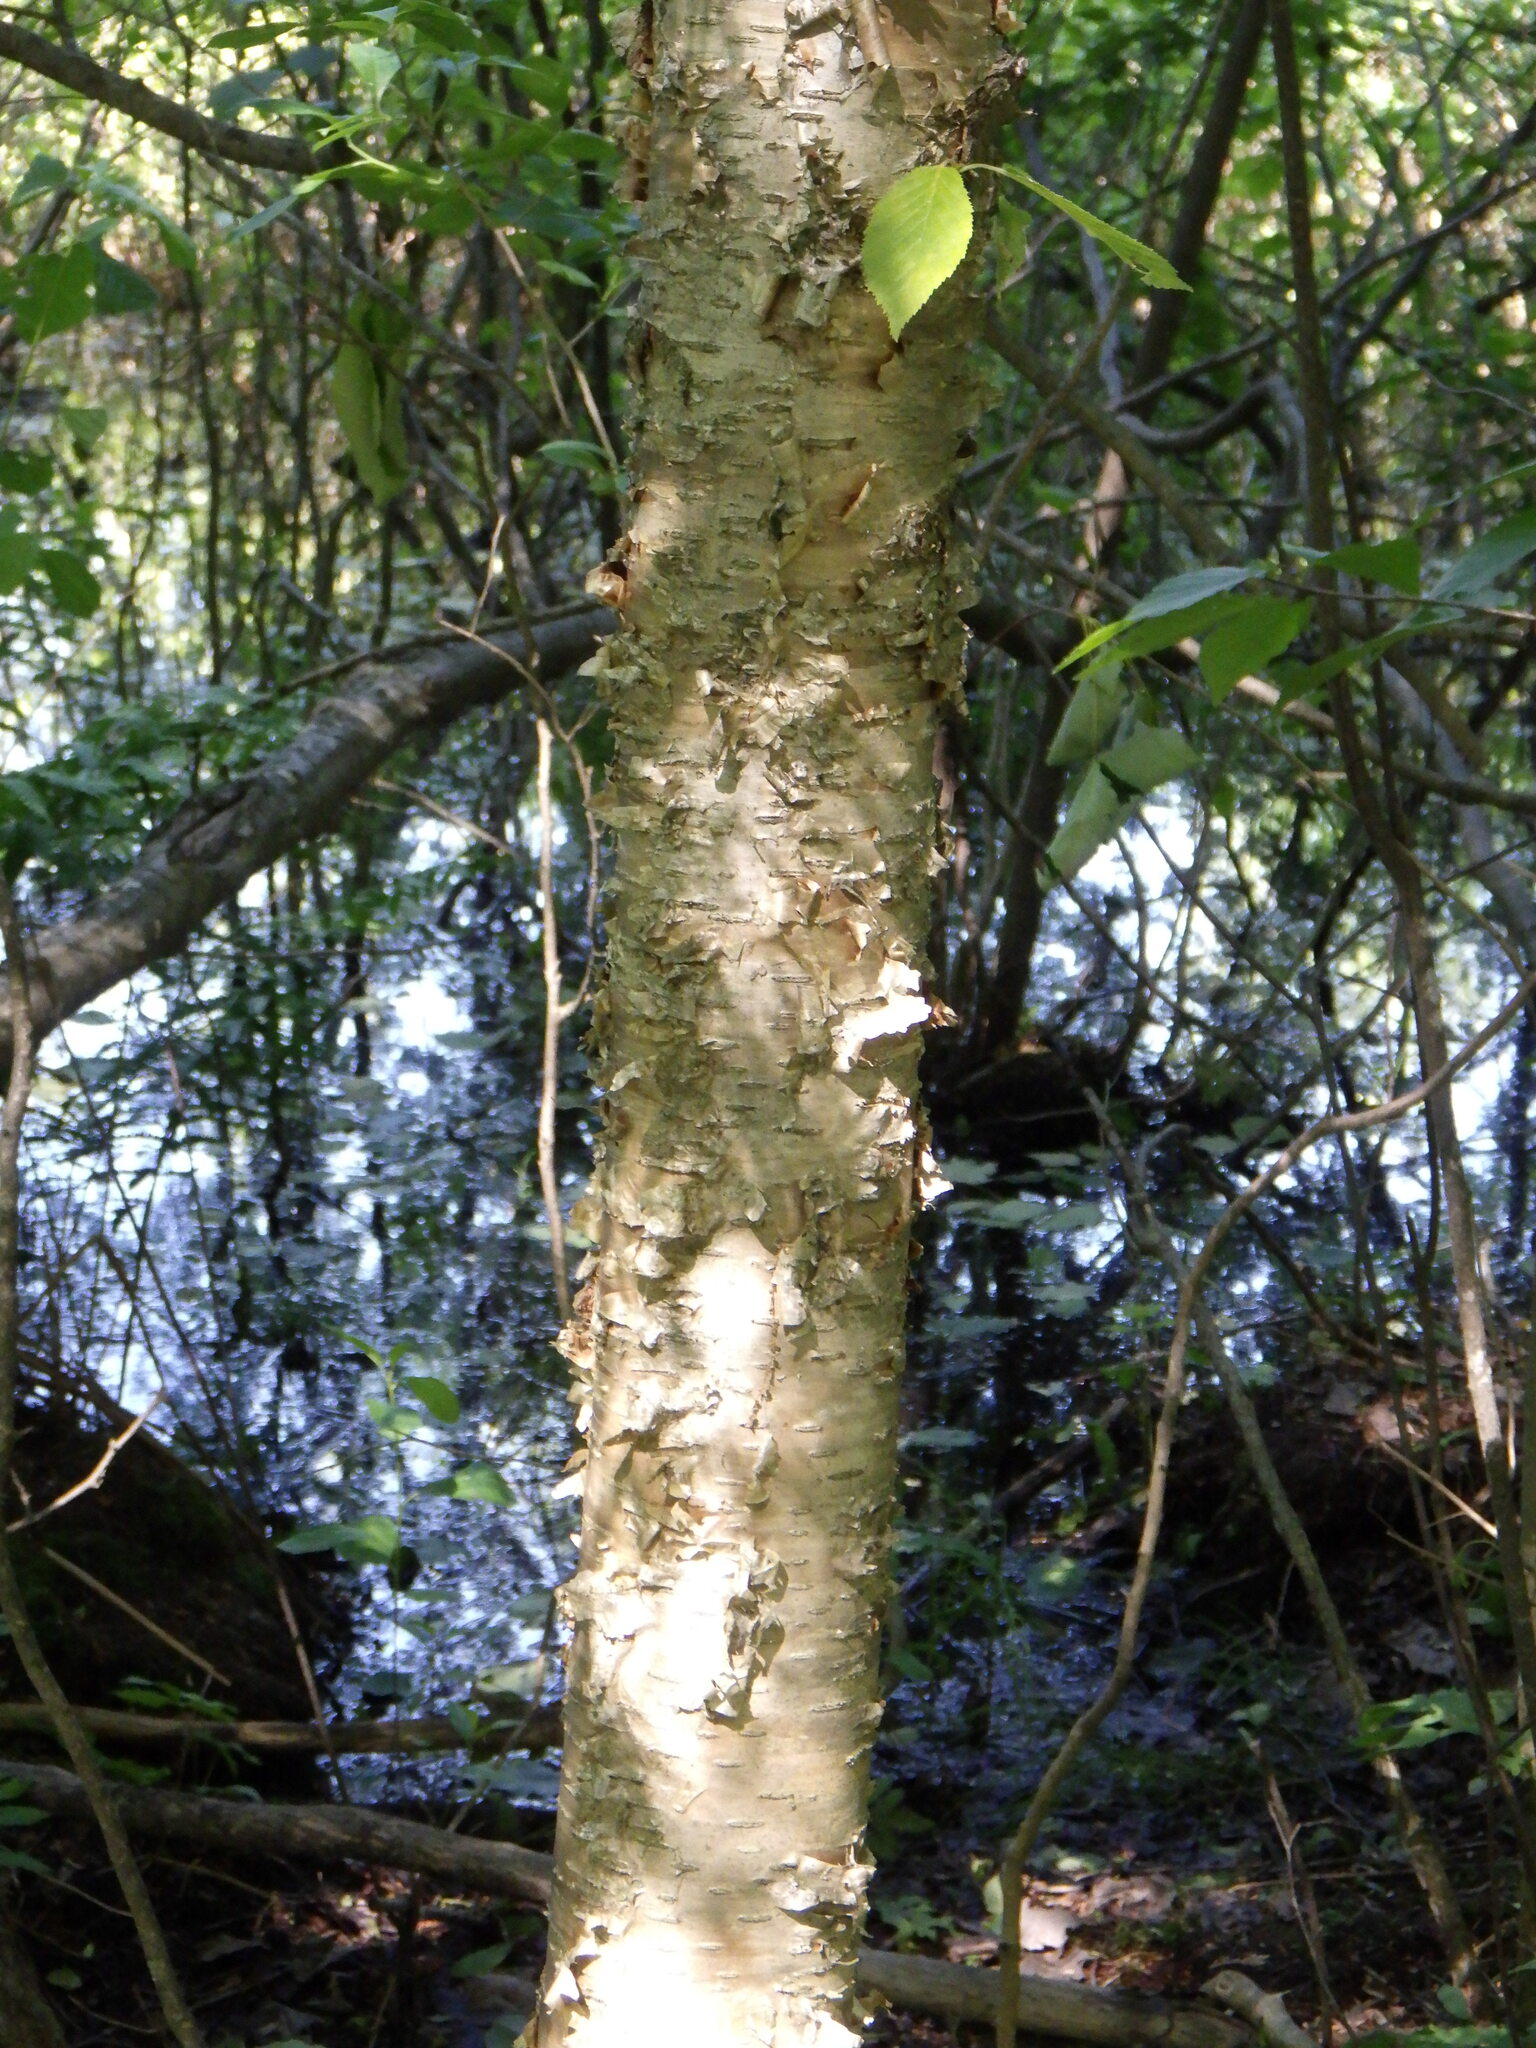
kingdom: Plantae
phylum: Tracheophyta
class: Magnoliopsida
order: Fagales
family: Betulaceae
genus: Betula
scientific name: Betula alleghaniensis
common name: Yellow birch
